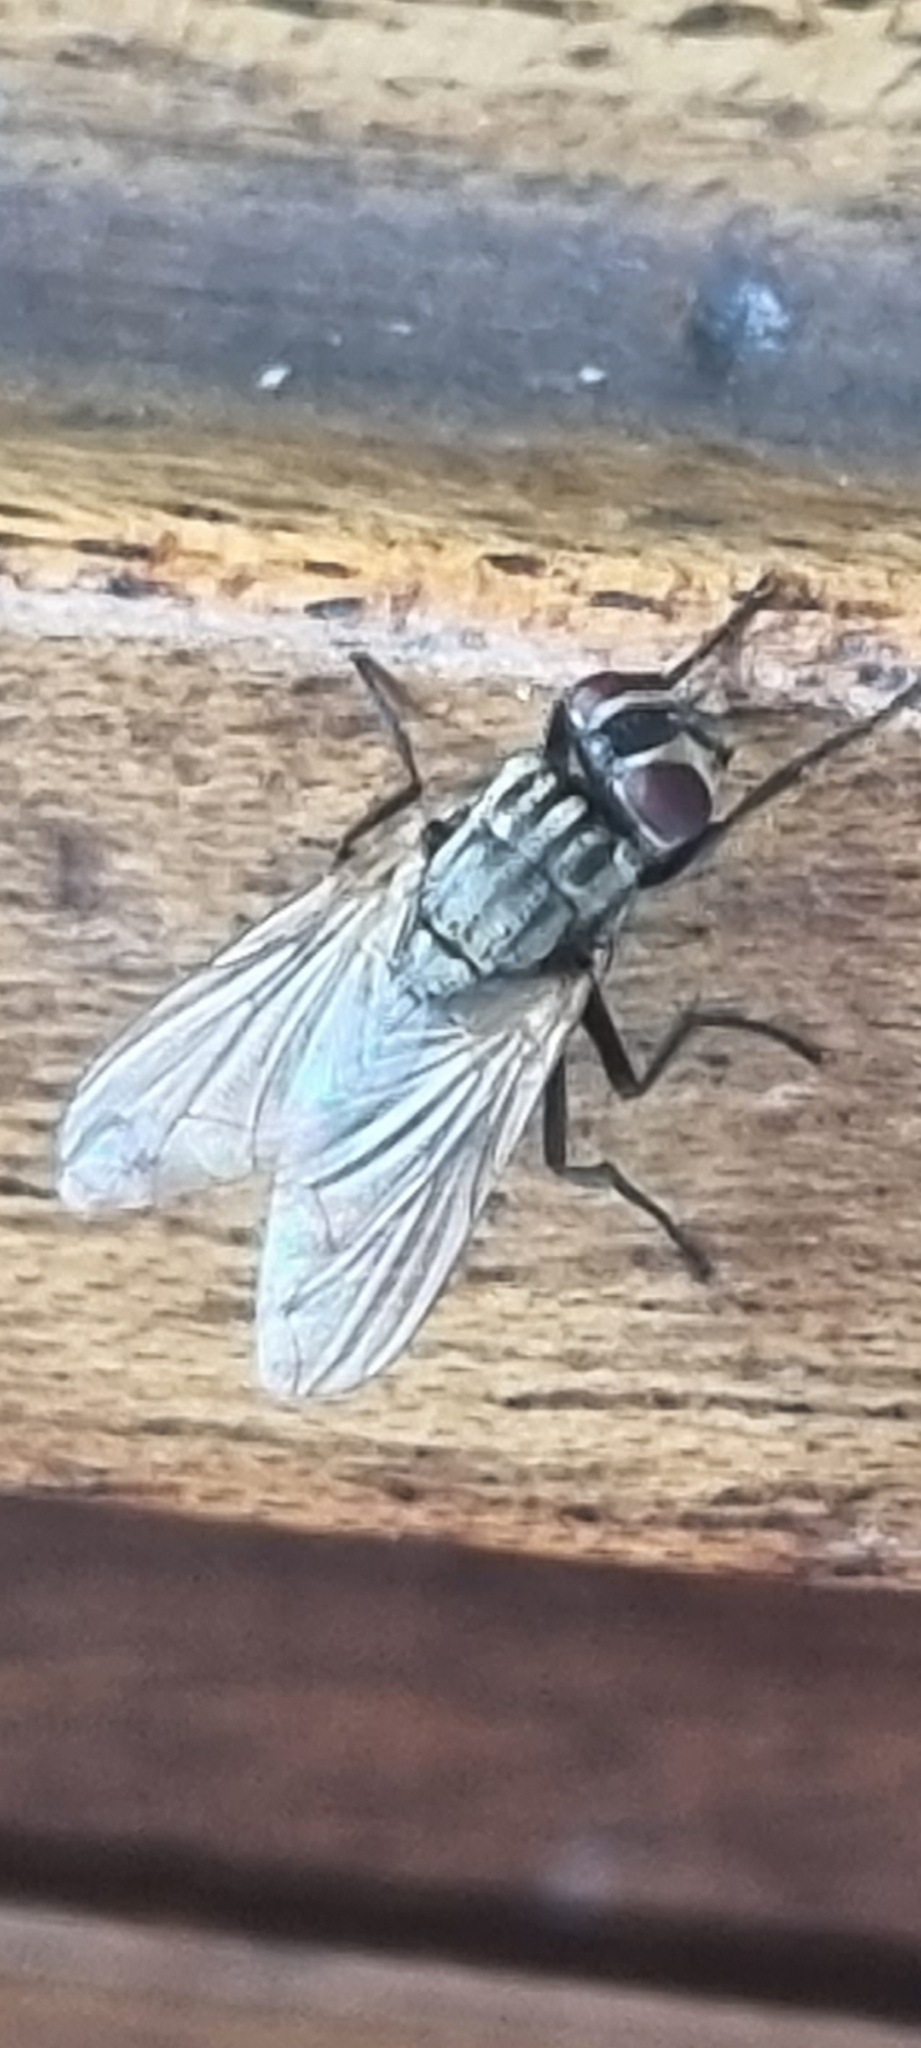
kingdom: Animalia
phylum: Arthropoda
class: Insecta
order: Diptera
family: Muscidae
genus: Musca
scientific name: Musca domestica
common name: House fly
